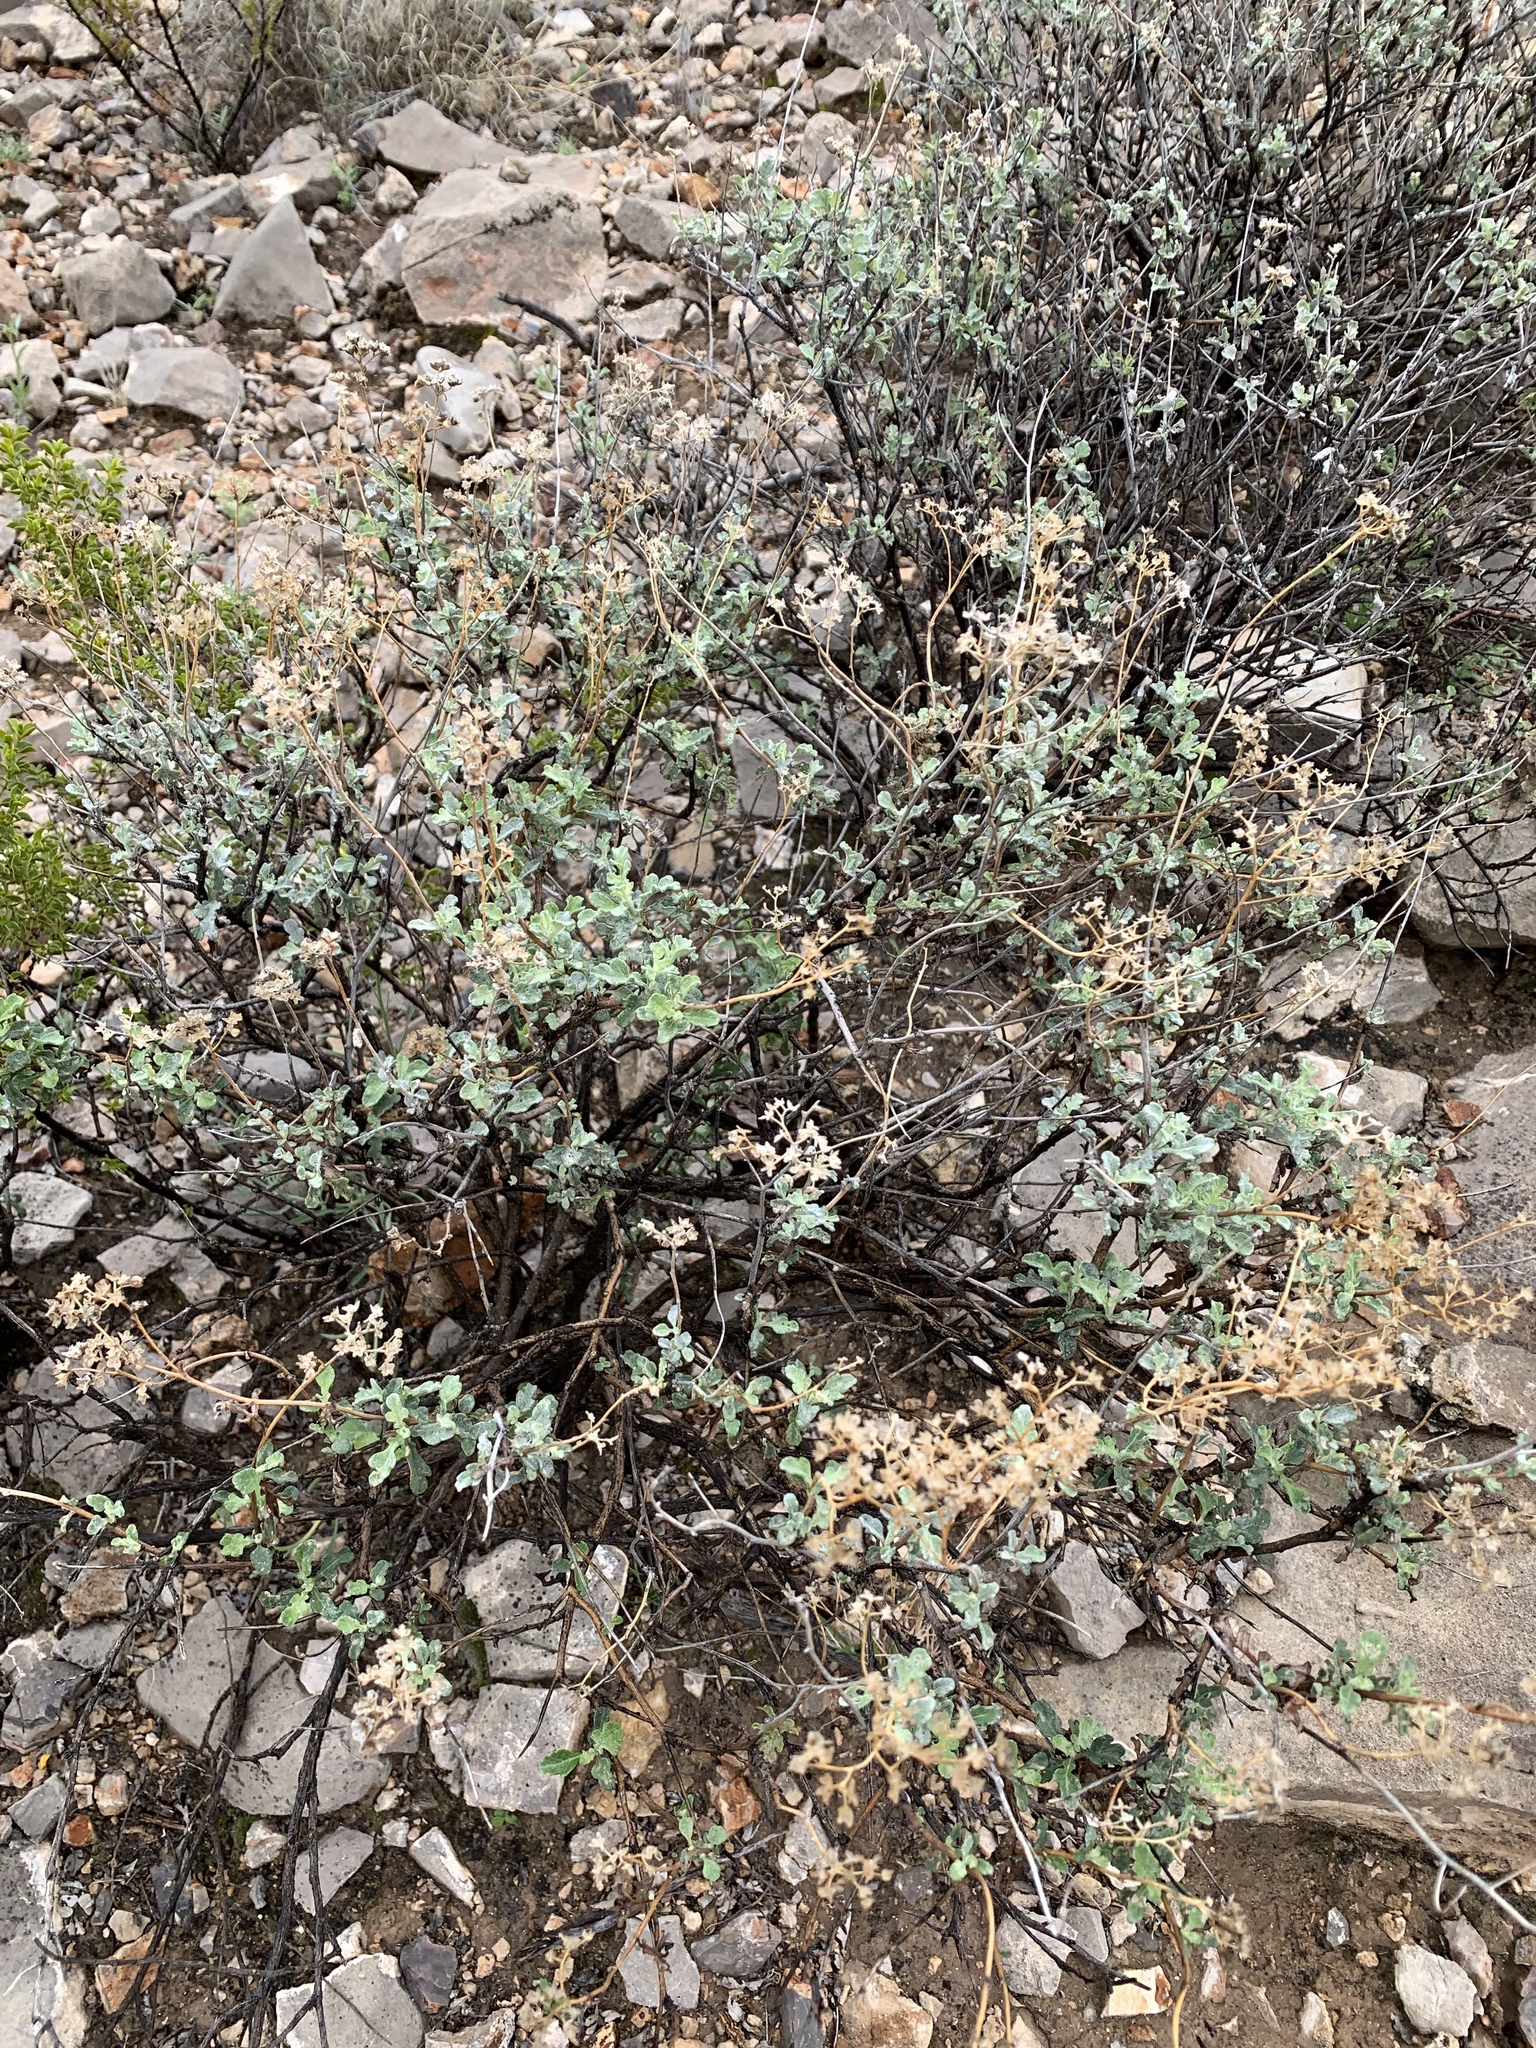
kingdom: Plantae
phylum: Tracheophyta
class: Magnoliopsida
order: Asterales
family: Asteraceae
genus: Parthenium
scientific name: Parthenium incanum
